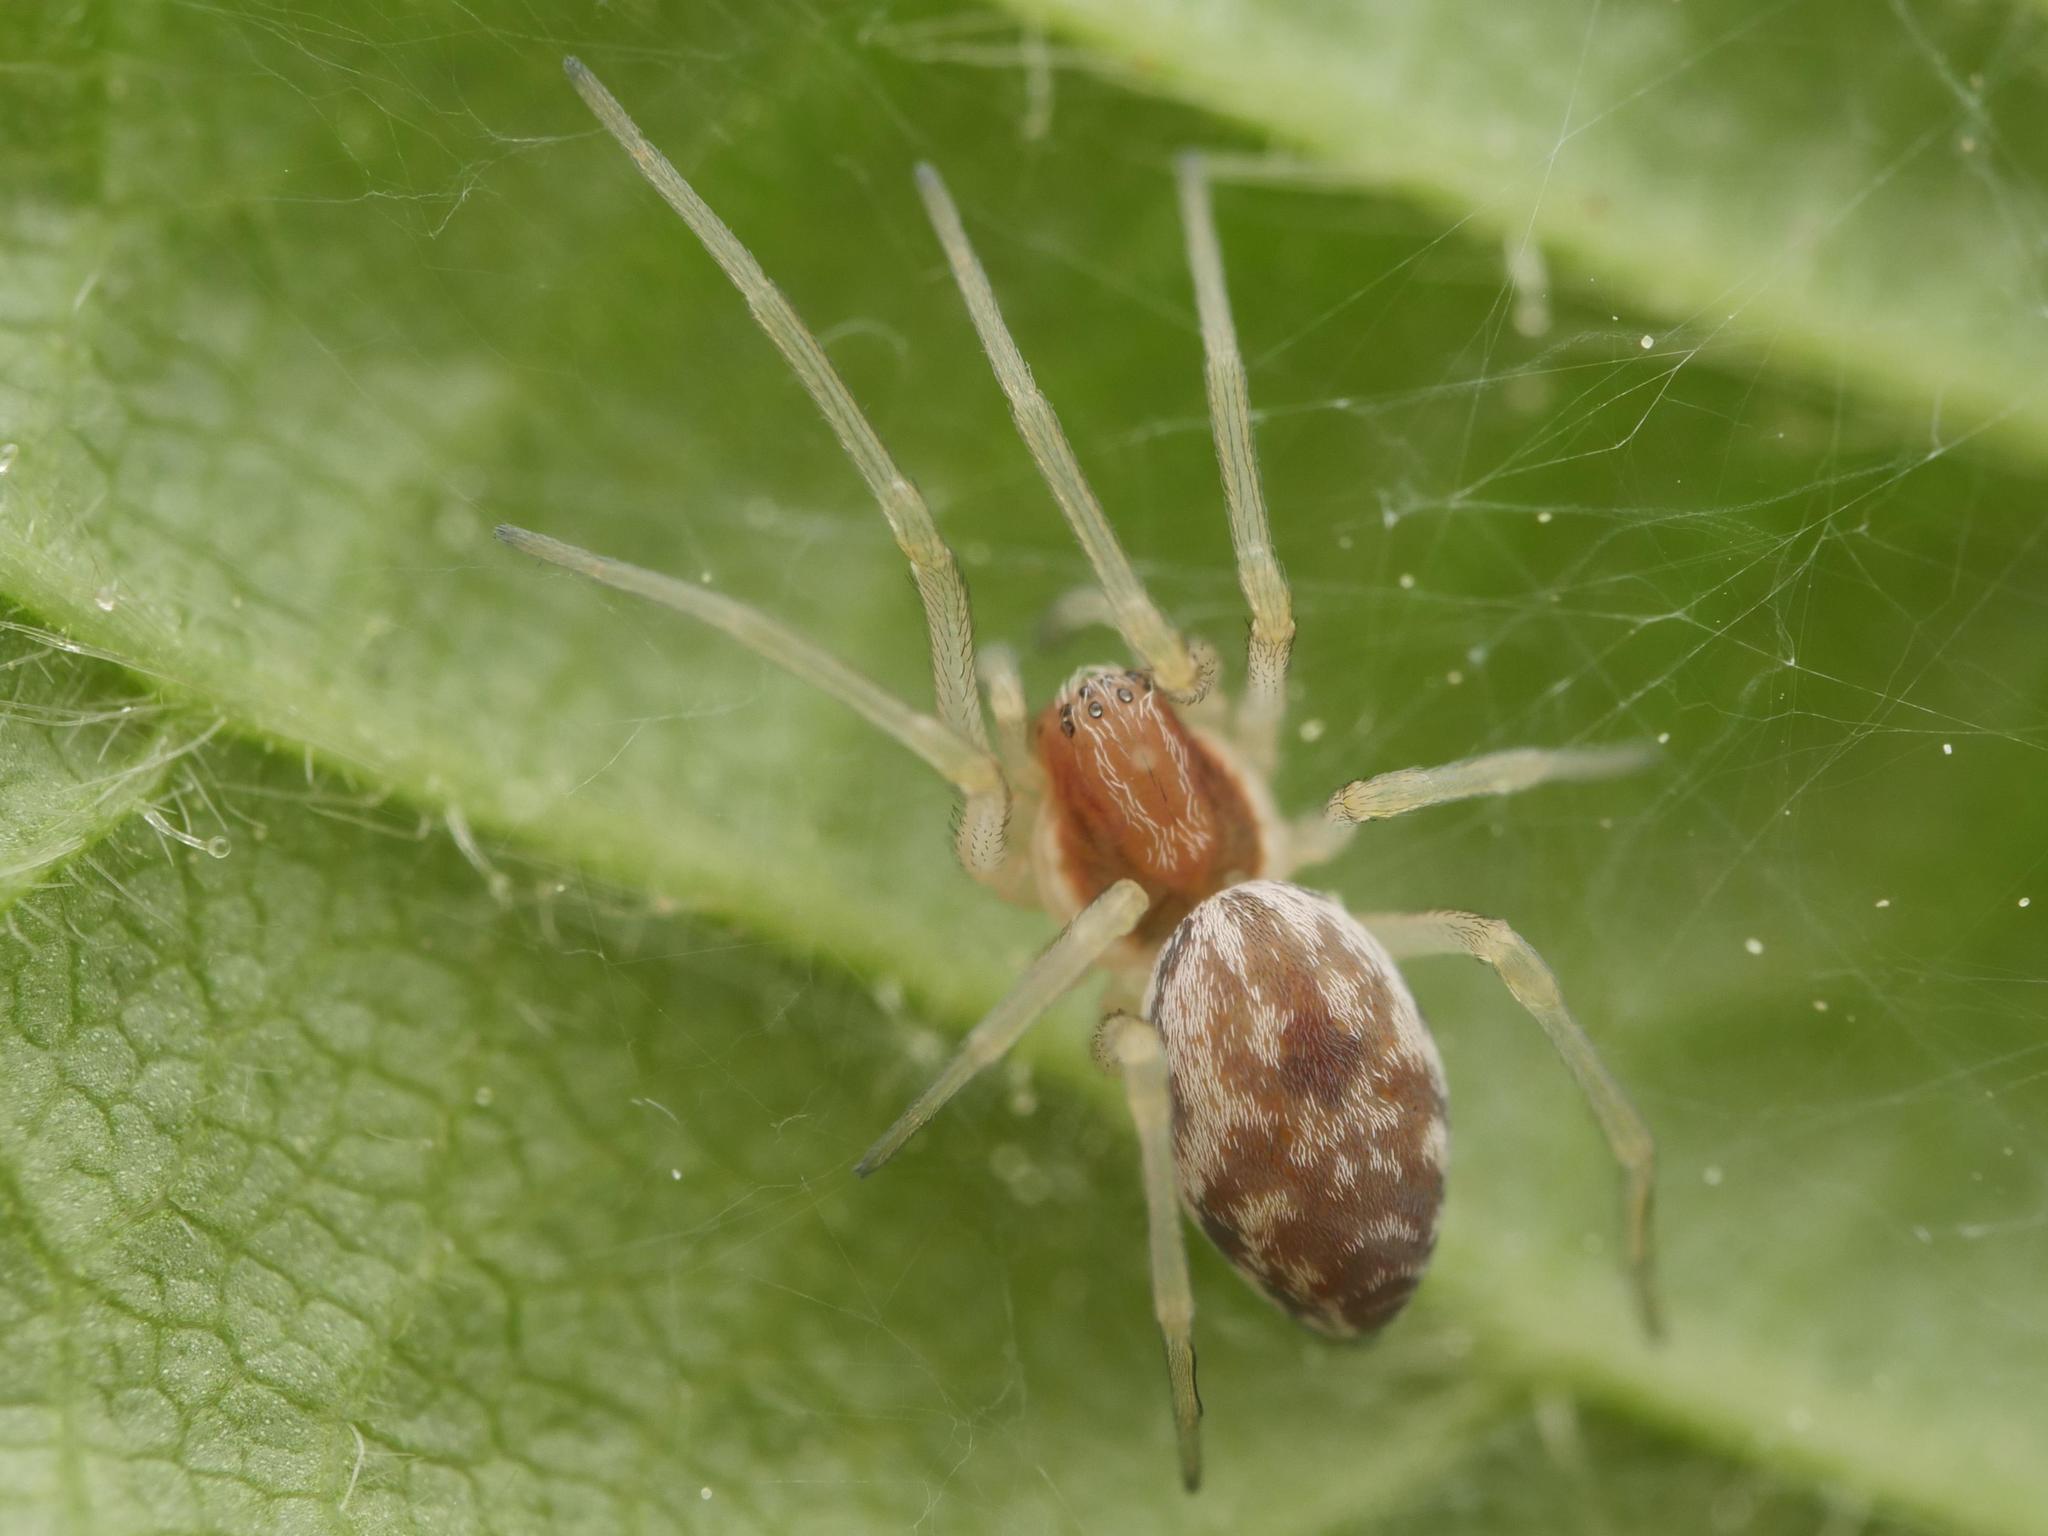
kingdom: Animalia
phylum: Arthropoda
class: Arachnida
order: Araneae
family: Dictynidae
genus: Nigma
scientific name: Nigma flavescens
